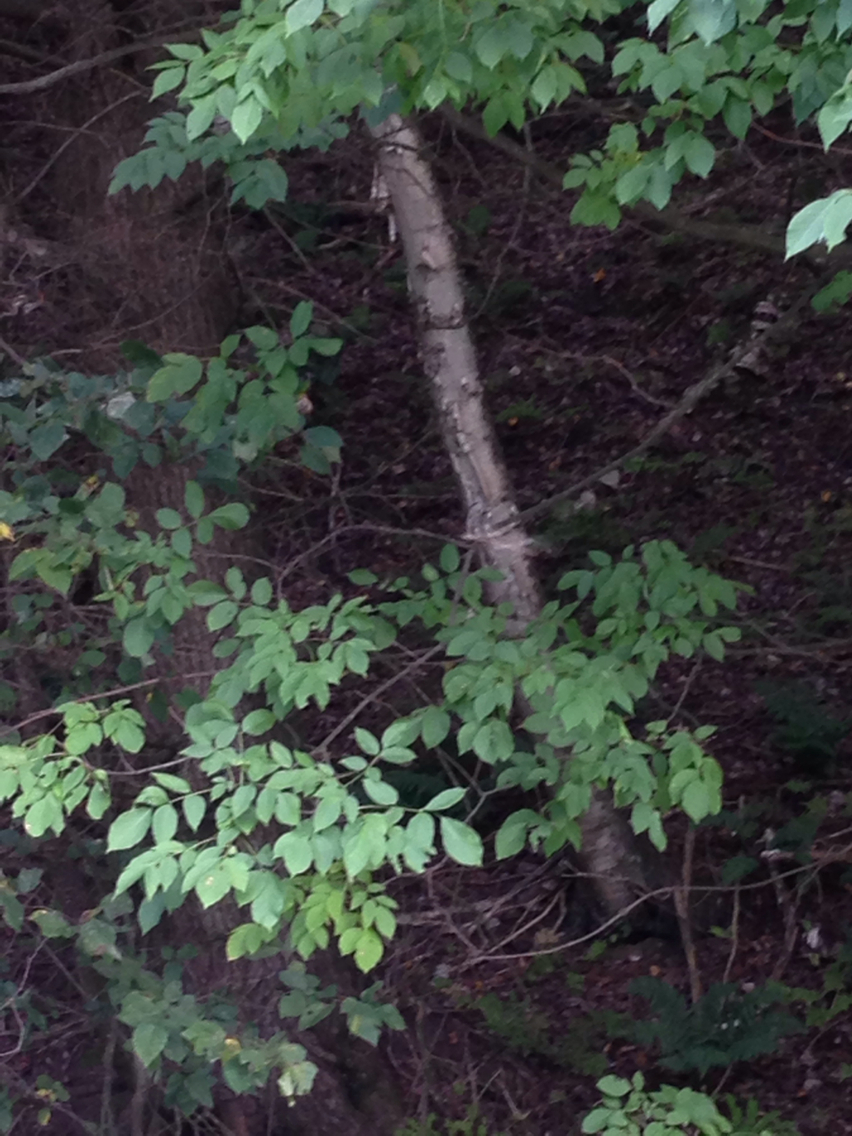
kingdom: Plantae
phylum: Tracheophyta
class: Magnoliopsida
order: Fagales
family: Betulaceae
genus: Betula
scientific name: Betula papyrifera
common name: Paper birch
